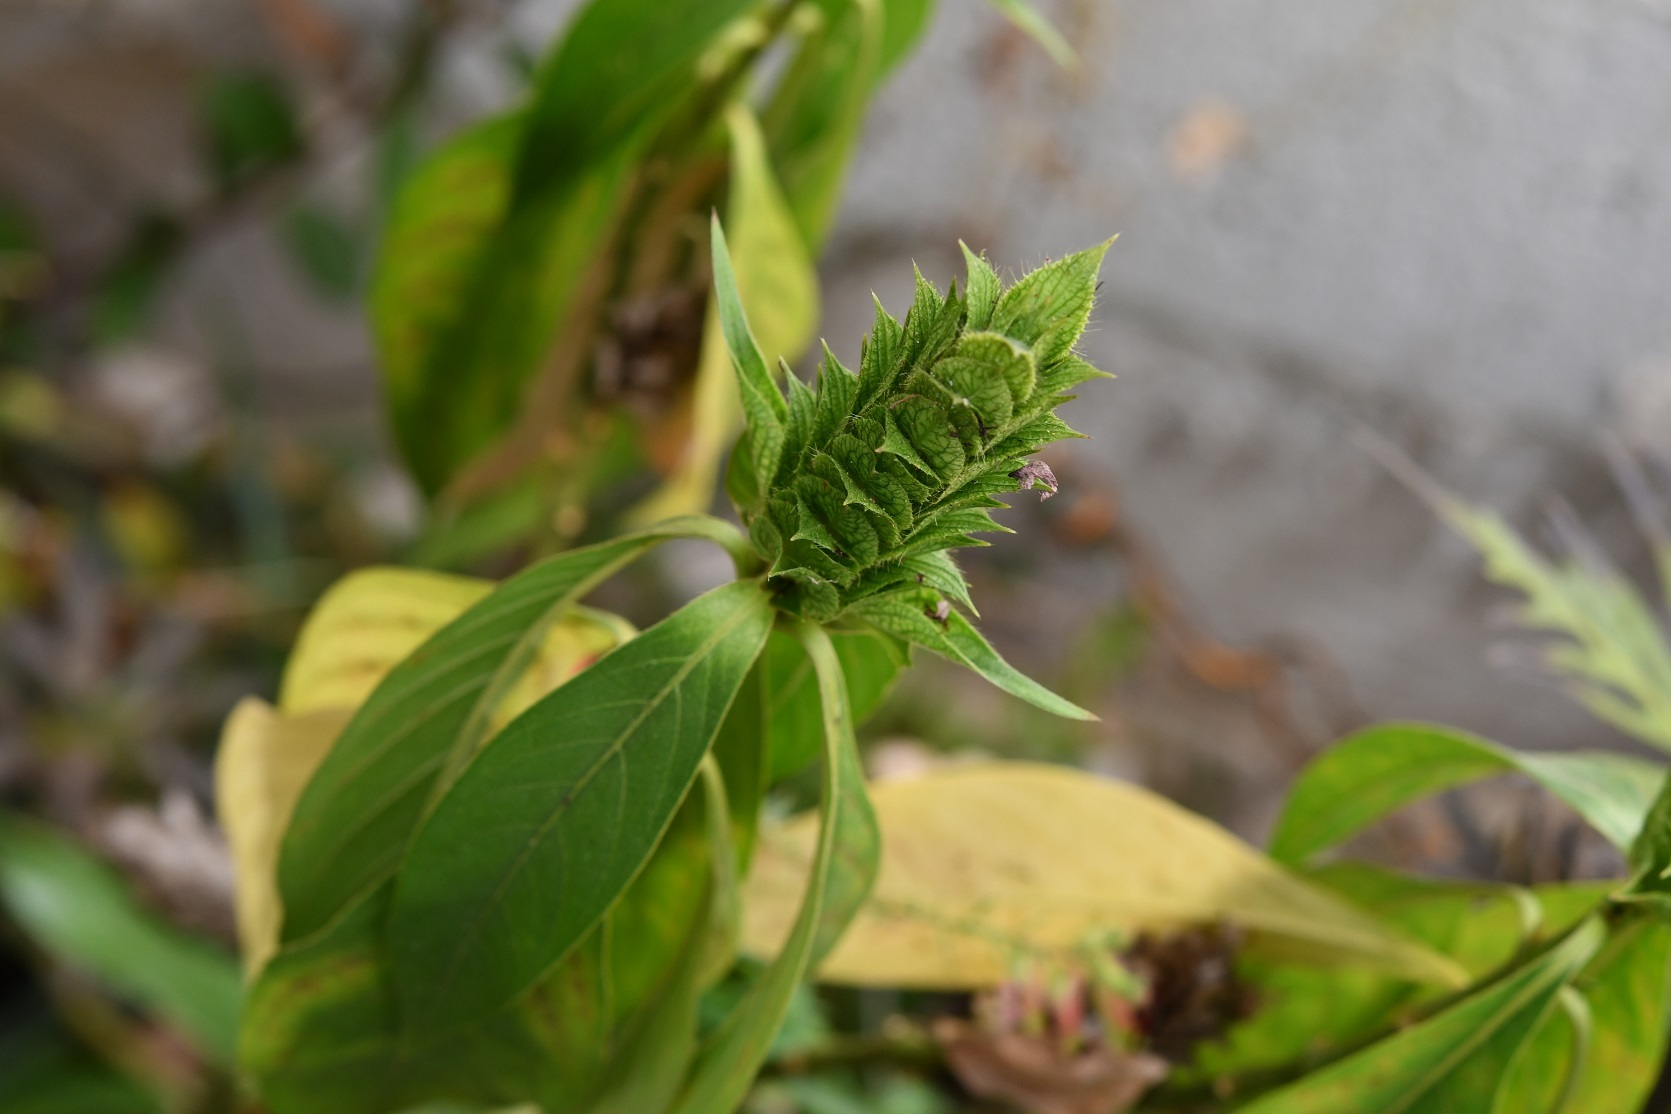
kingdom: Plantae
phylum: Tracheophyta
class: Magnoliopsida
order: Lamiales
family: Acanthaceae
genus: Barleria
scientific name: Barleria oenotheroides
